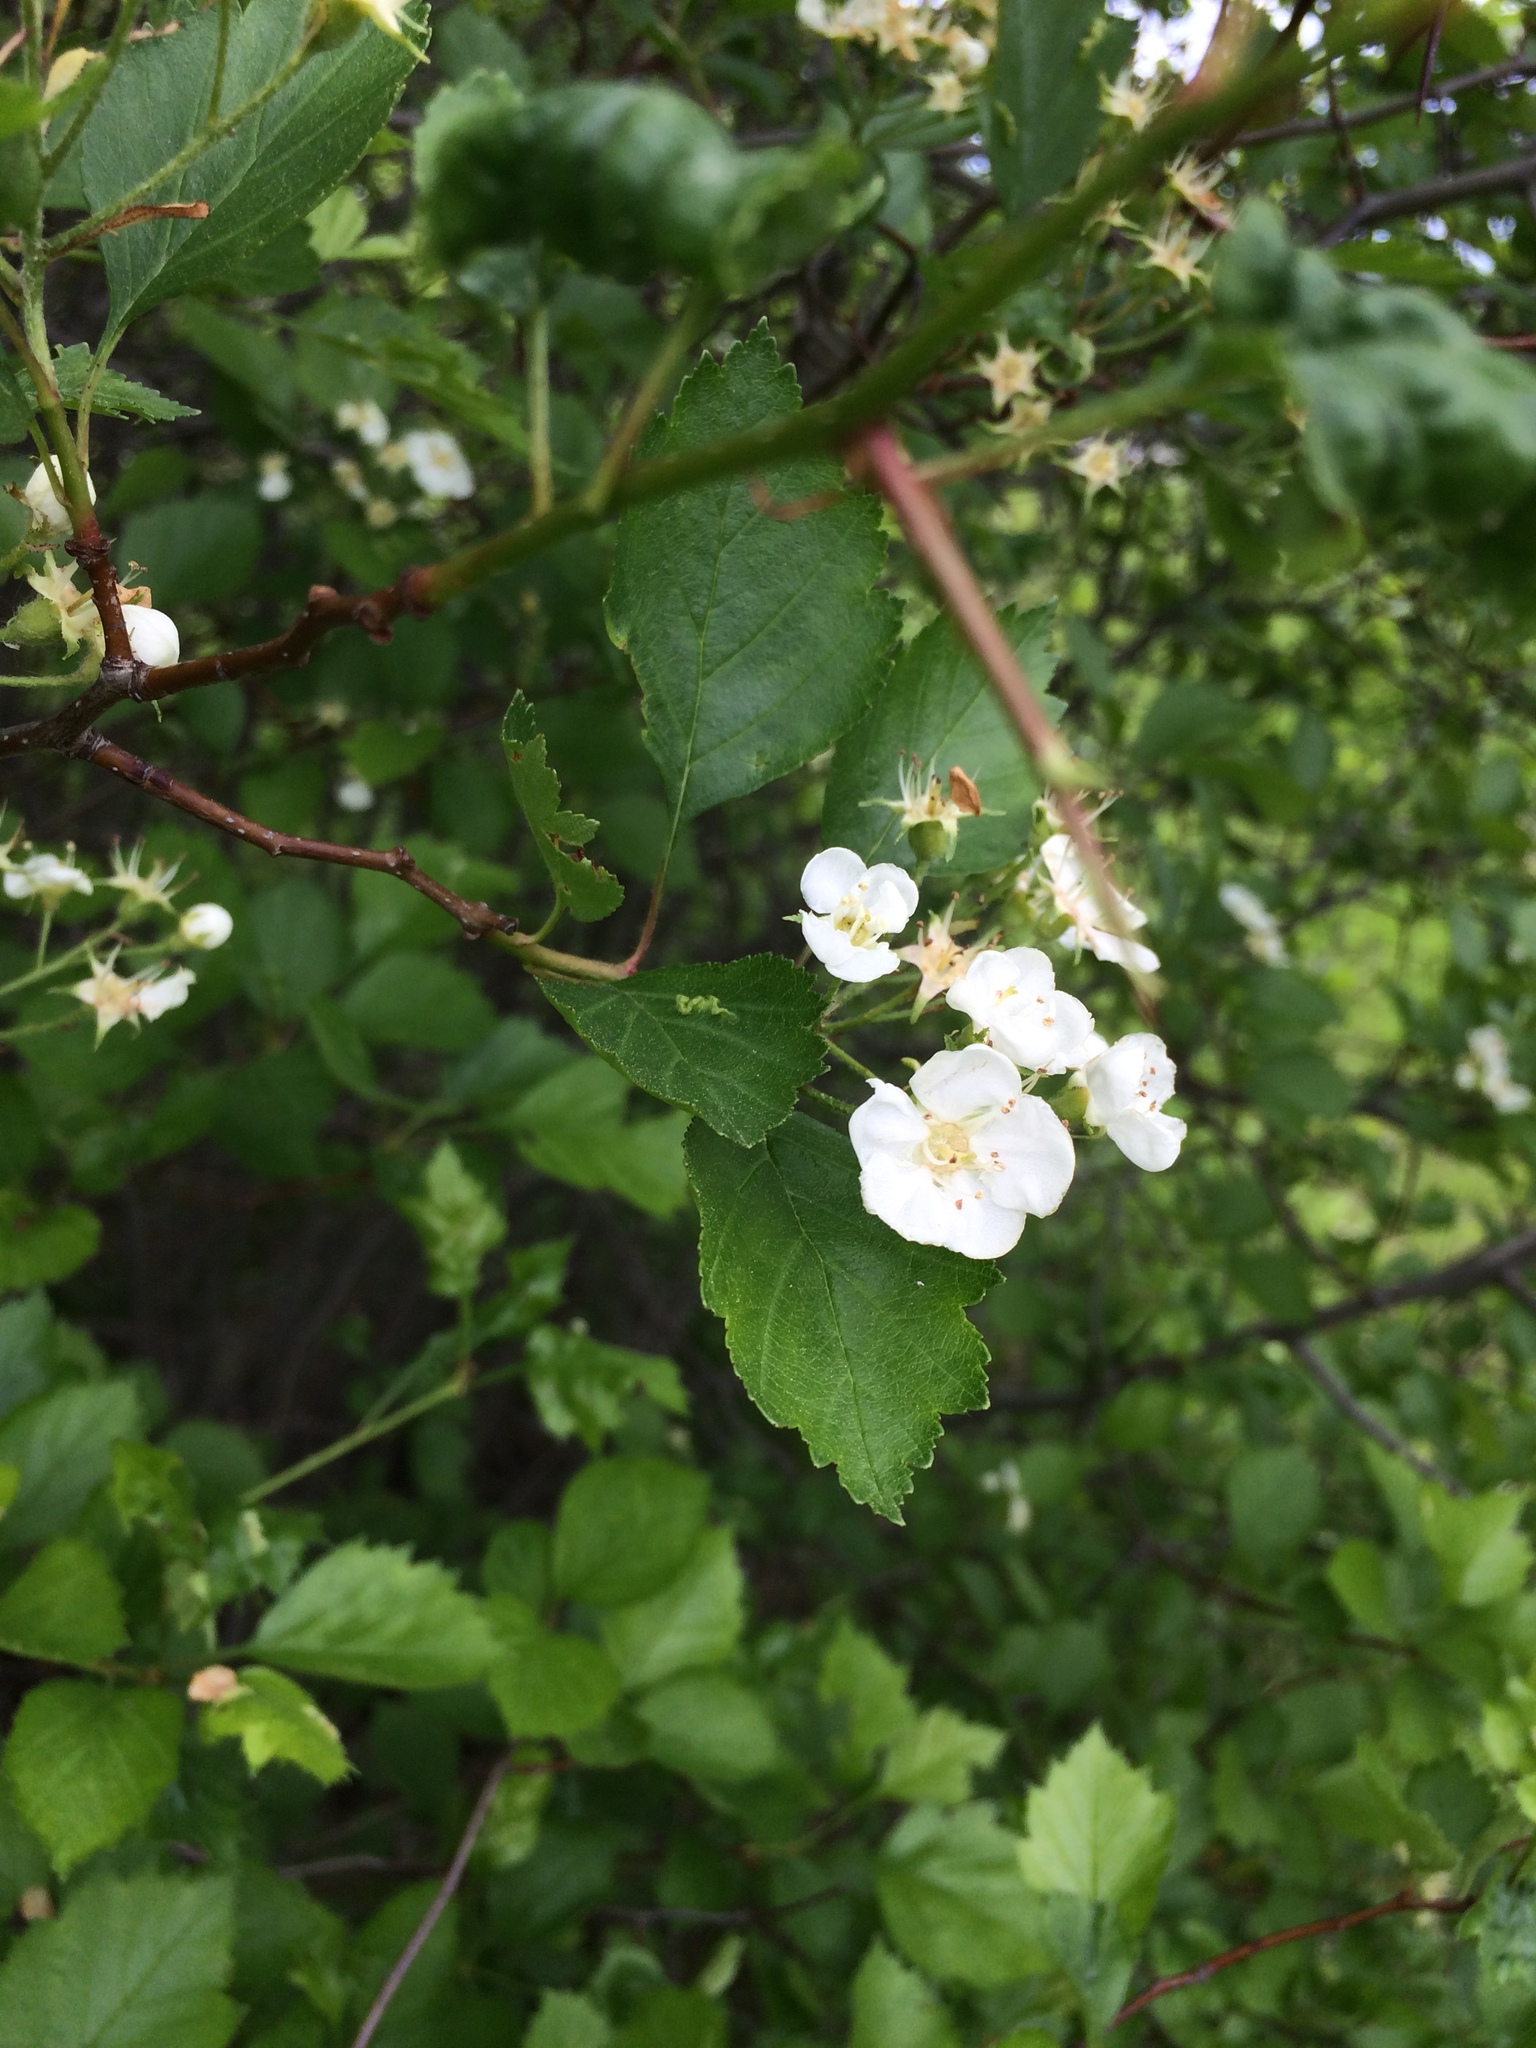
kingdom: Plantae
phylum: Tracheophyta
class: Magnoliopsida
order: Rosales
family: Rosaceae
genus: Crataegus
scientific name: Crataegus chrysocarpa
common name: Fire-berry hawthorn
